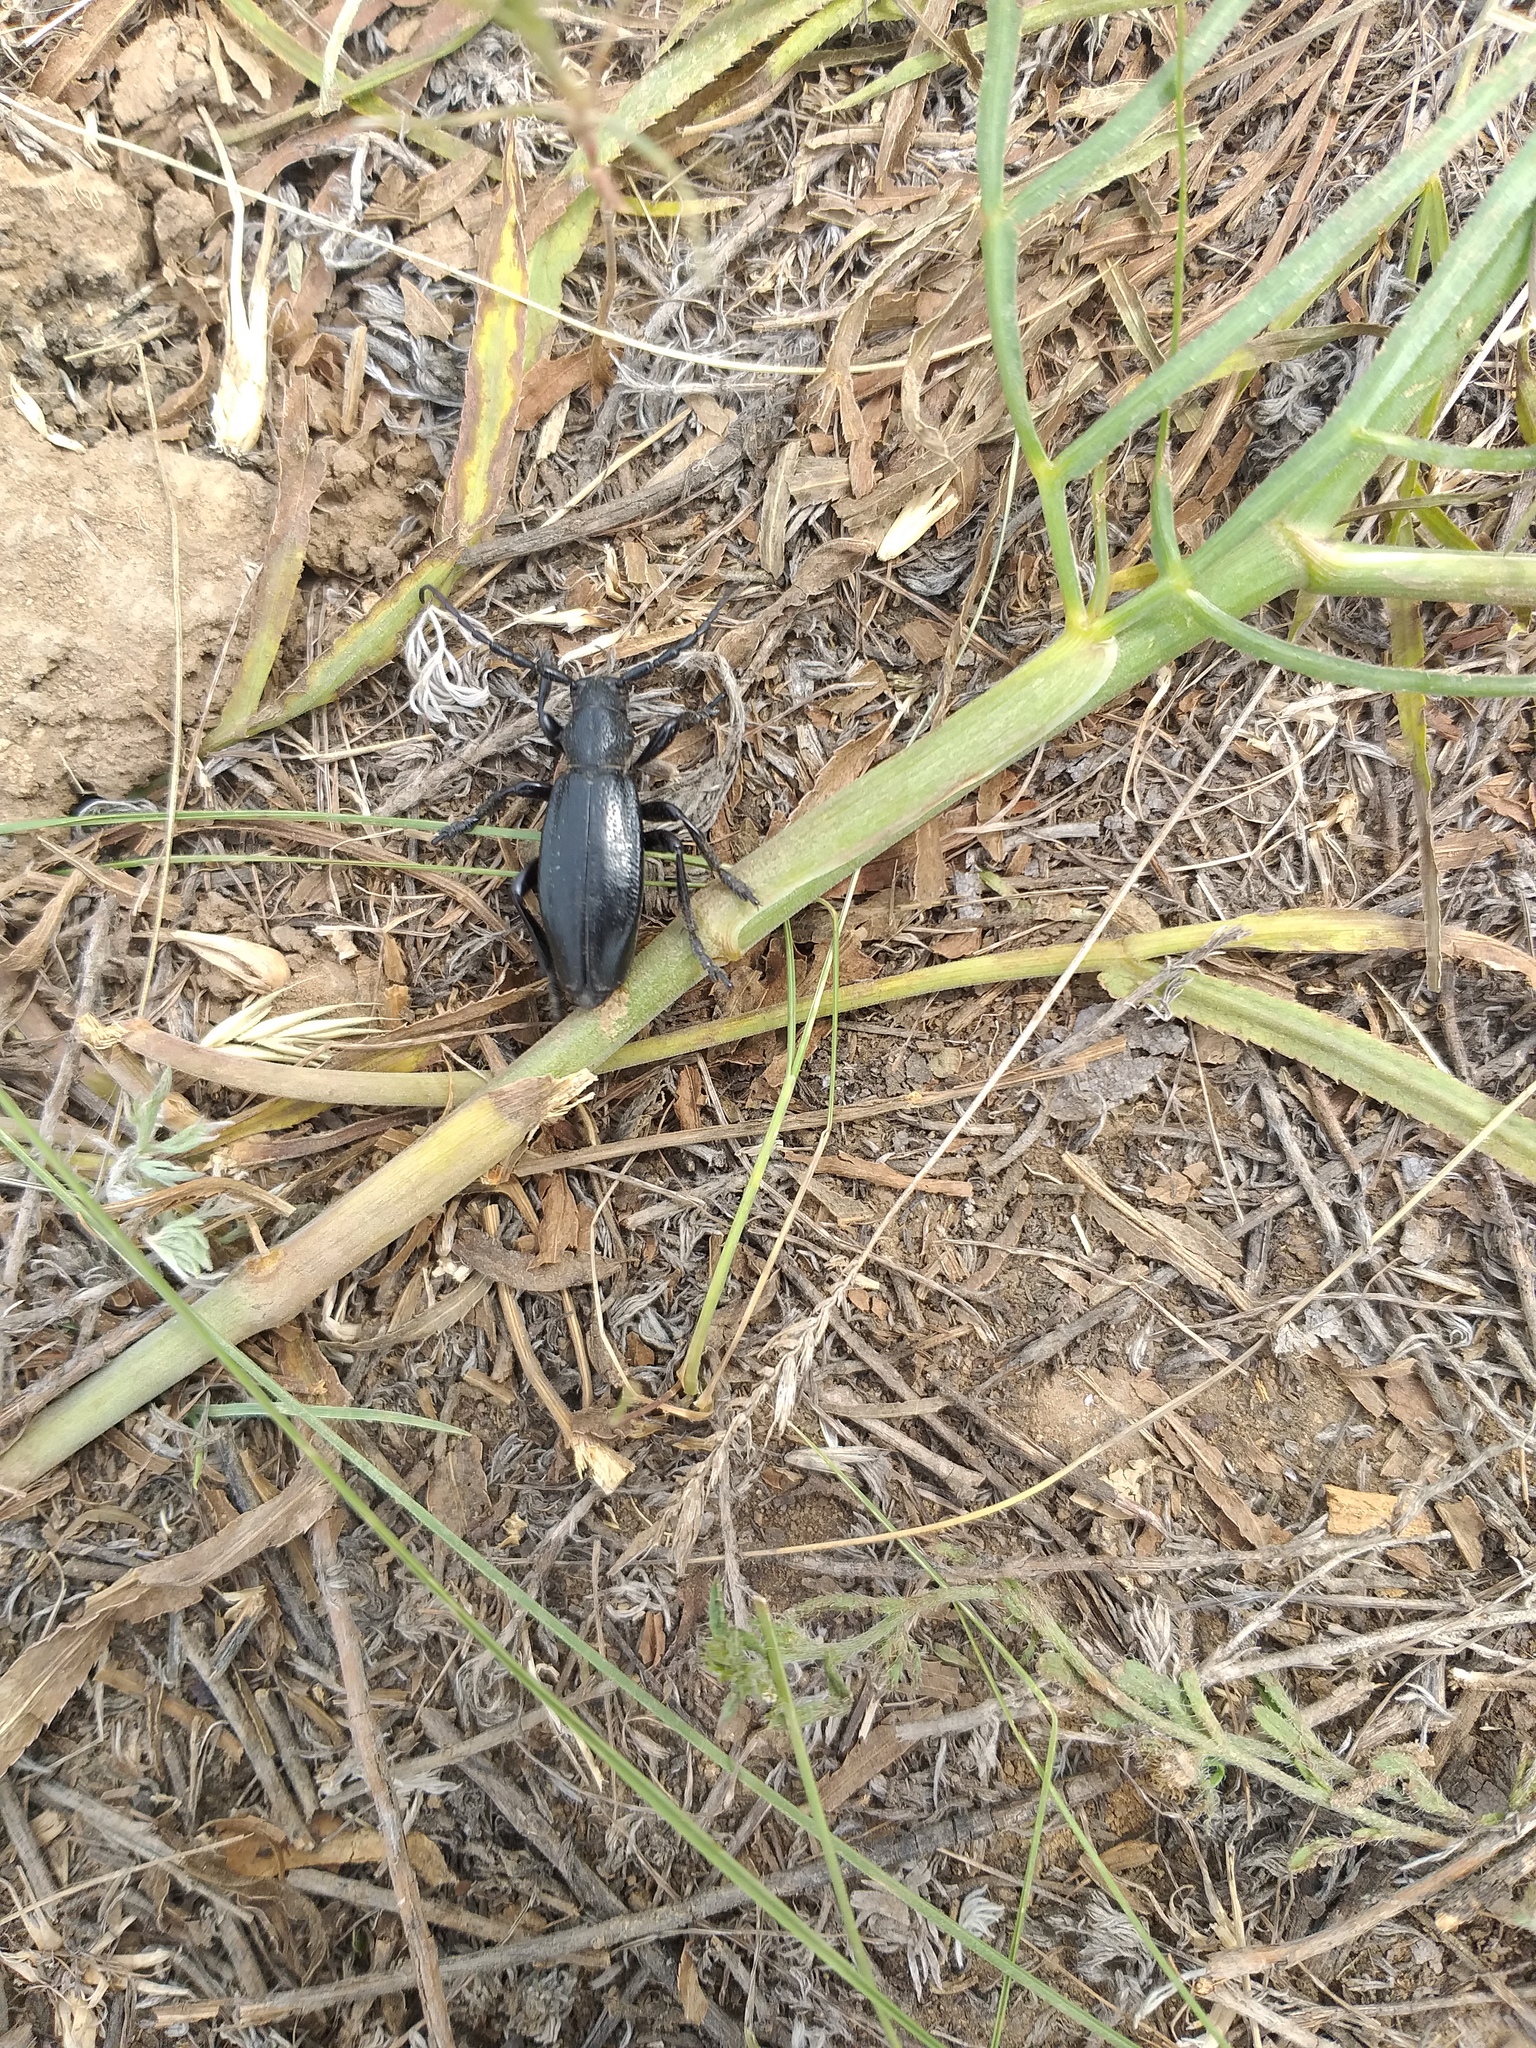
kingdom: Animalia
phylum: Arthropoda
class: Insecta
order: Coleoptera
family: Cerambycidae
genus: Dorcadion
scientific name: Dorcadion carinatum
